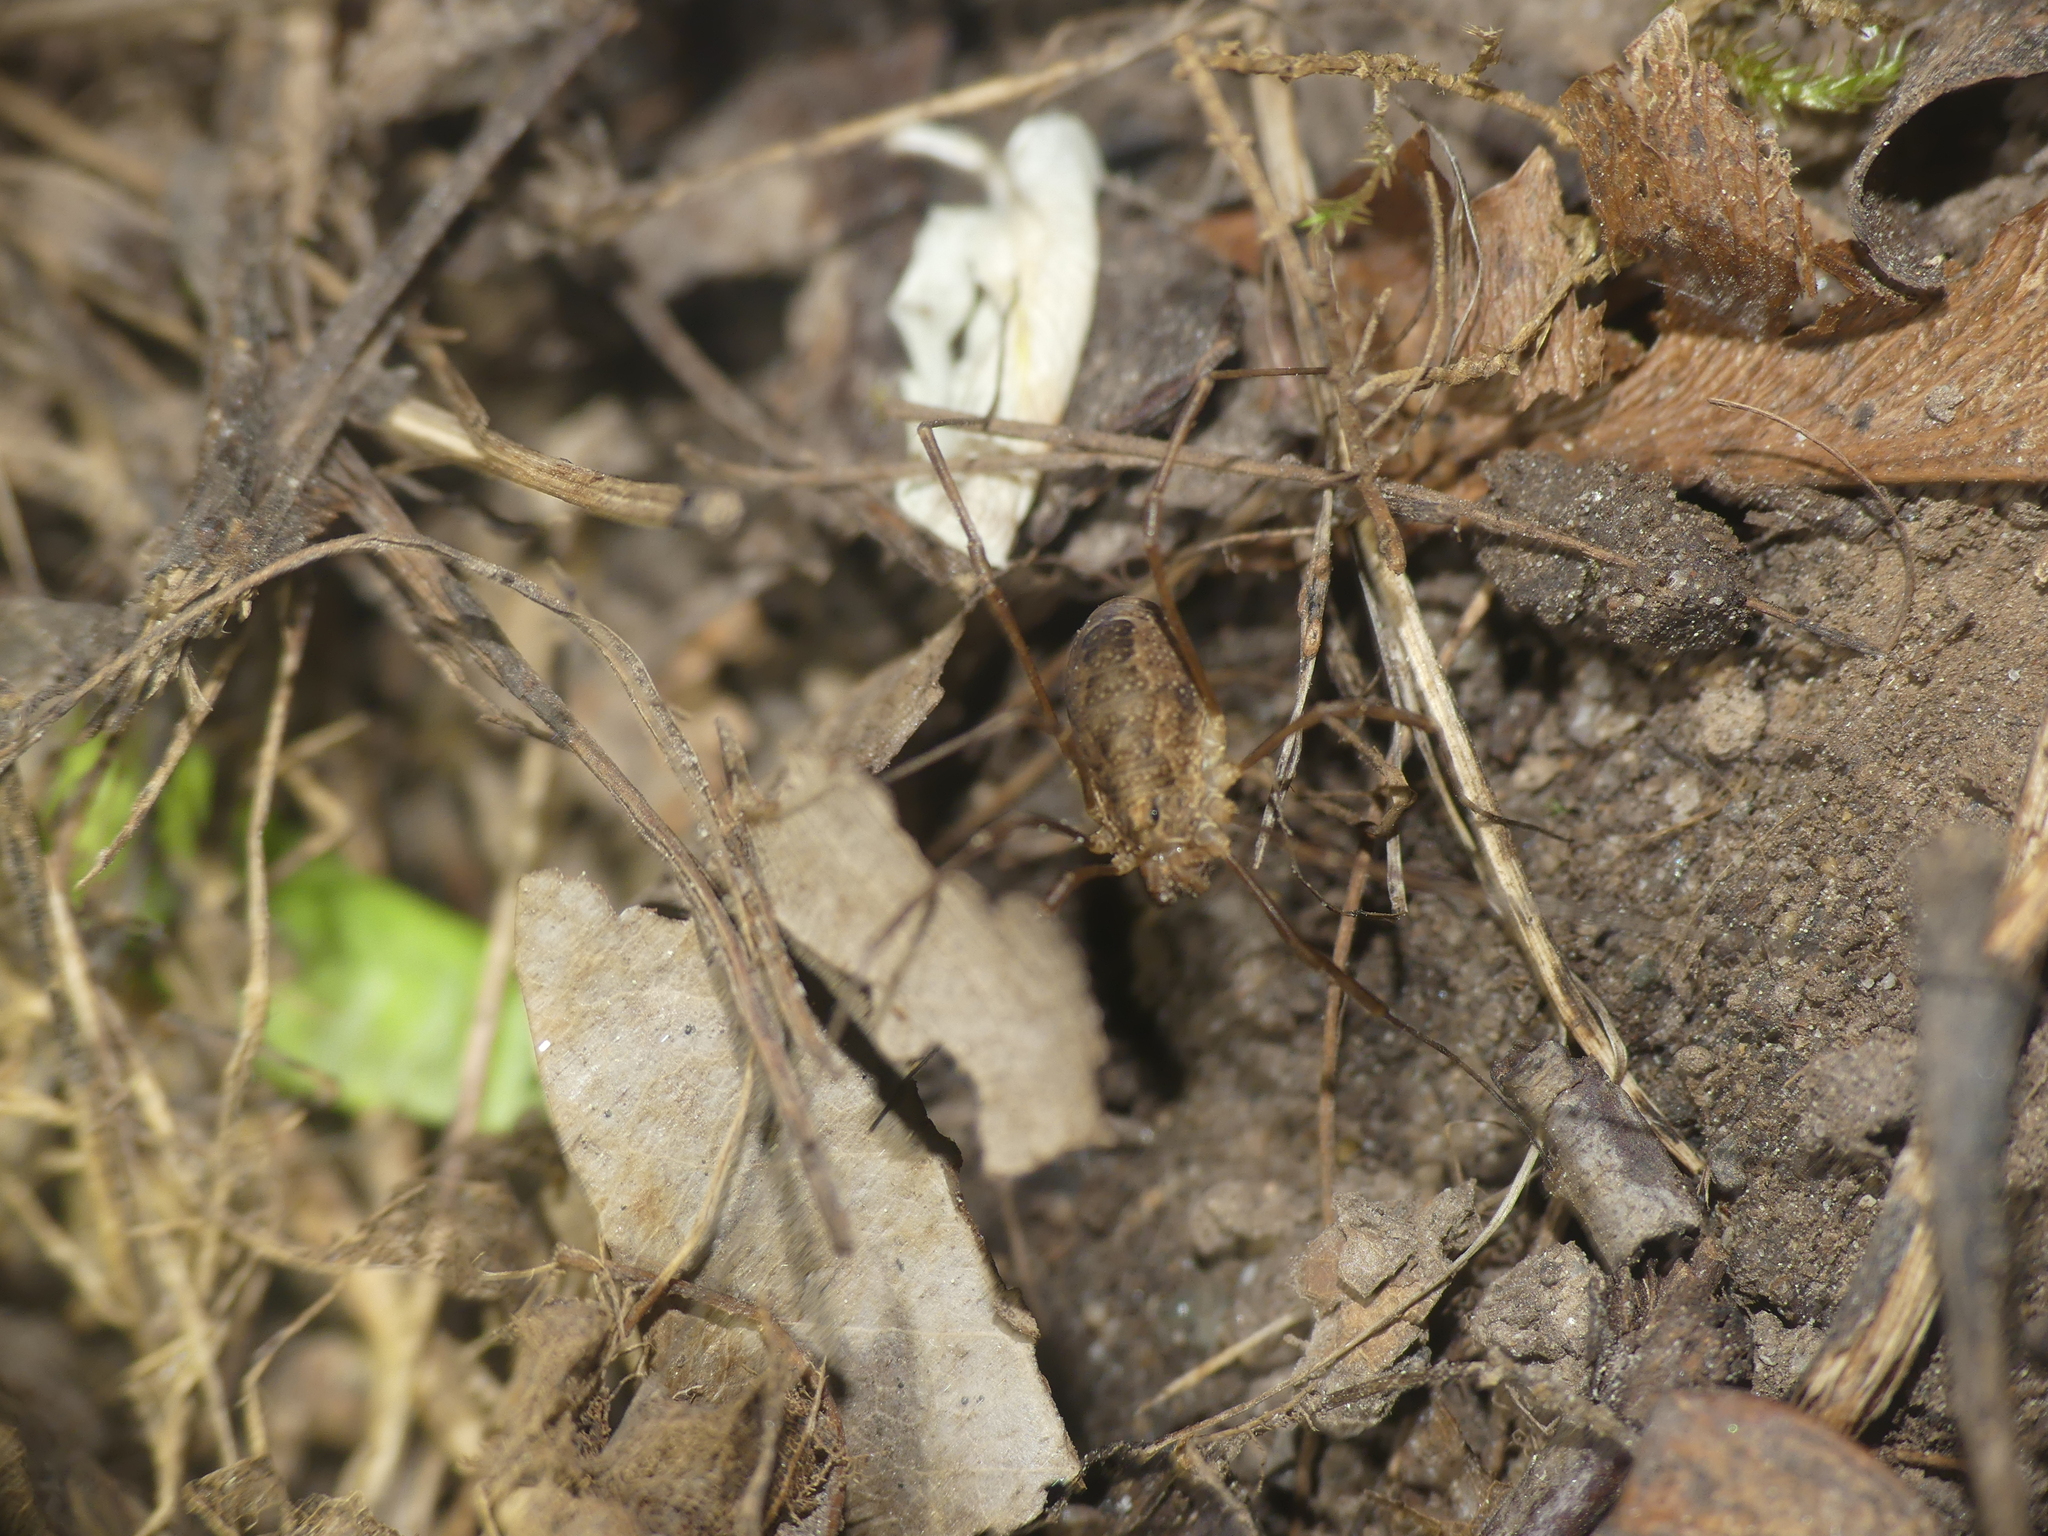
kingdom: Animalia
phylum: Arthropoda
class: Arachnida
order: Opiliones
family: Phalangiidae
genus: Rilaena
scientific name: Rilaena triangularis
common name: Spring harvestman
